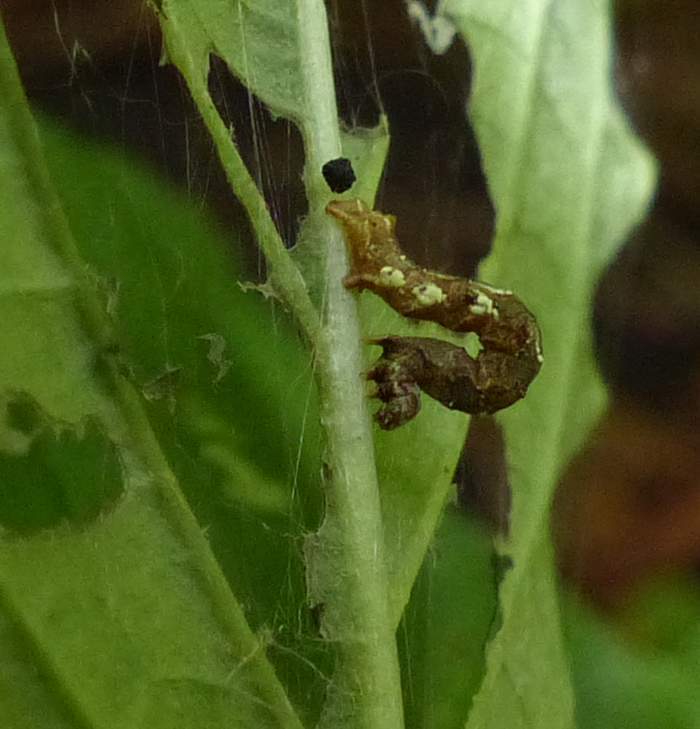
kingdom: Animalia
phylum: Arthropoda
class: Insecta
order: Lepidoptera
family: Geometridae
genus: Cepphis
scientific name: Cepphis armataria
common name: Scallop moth
